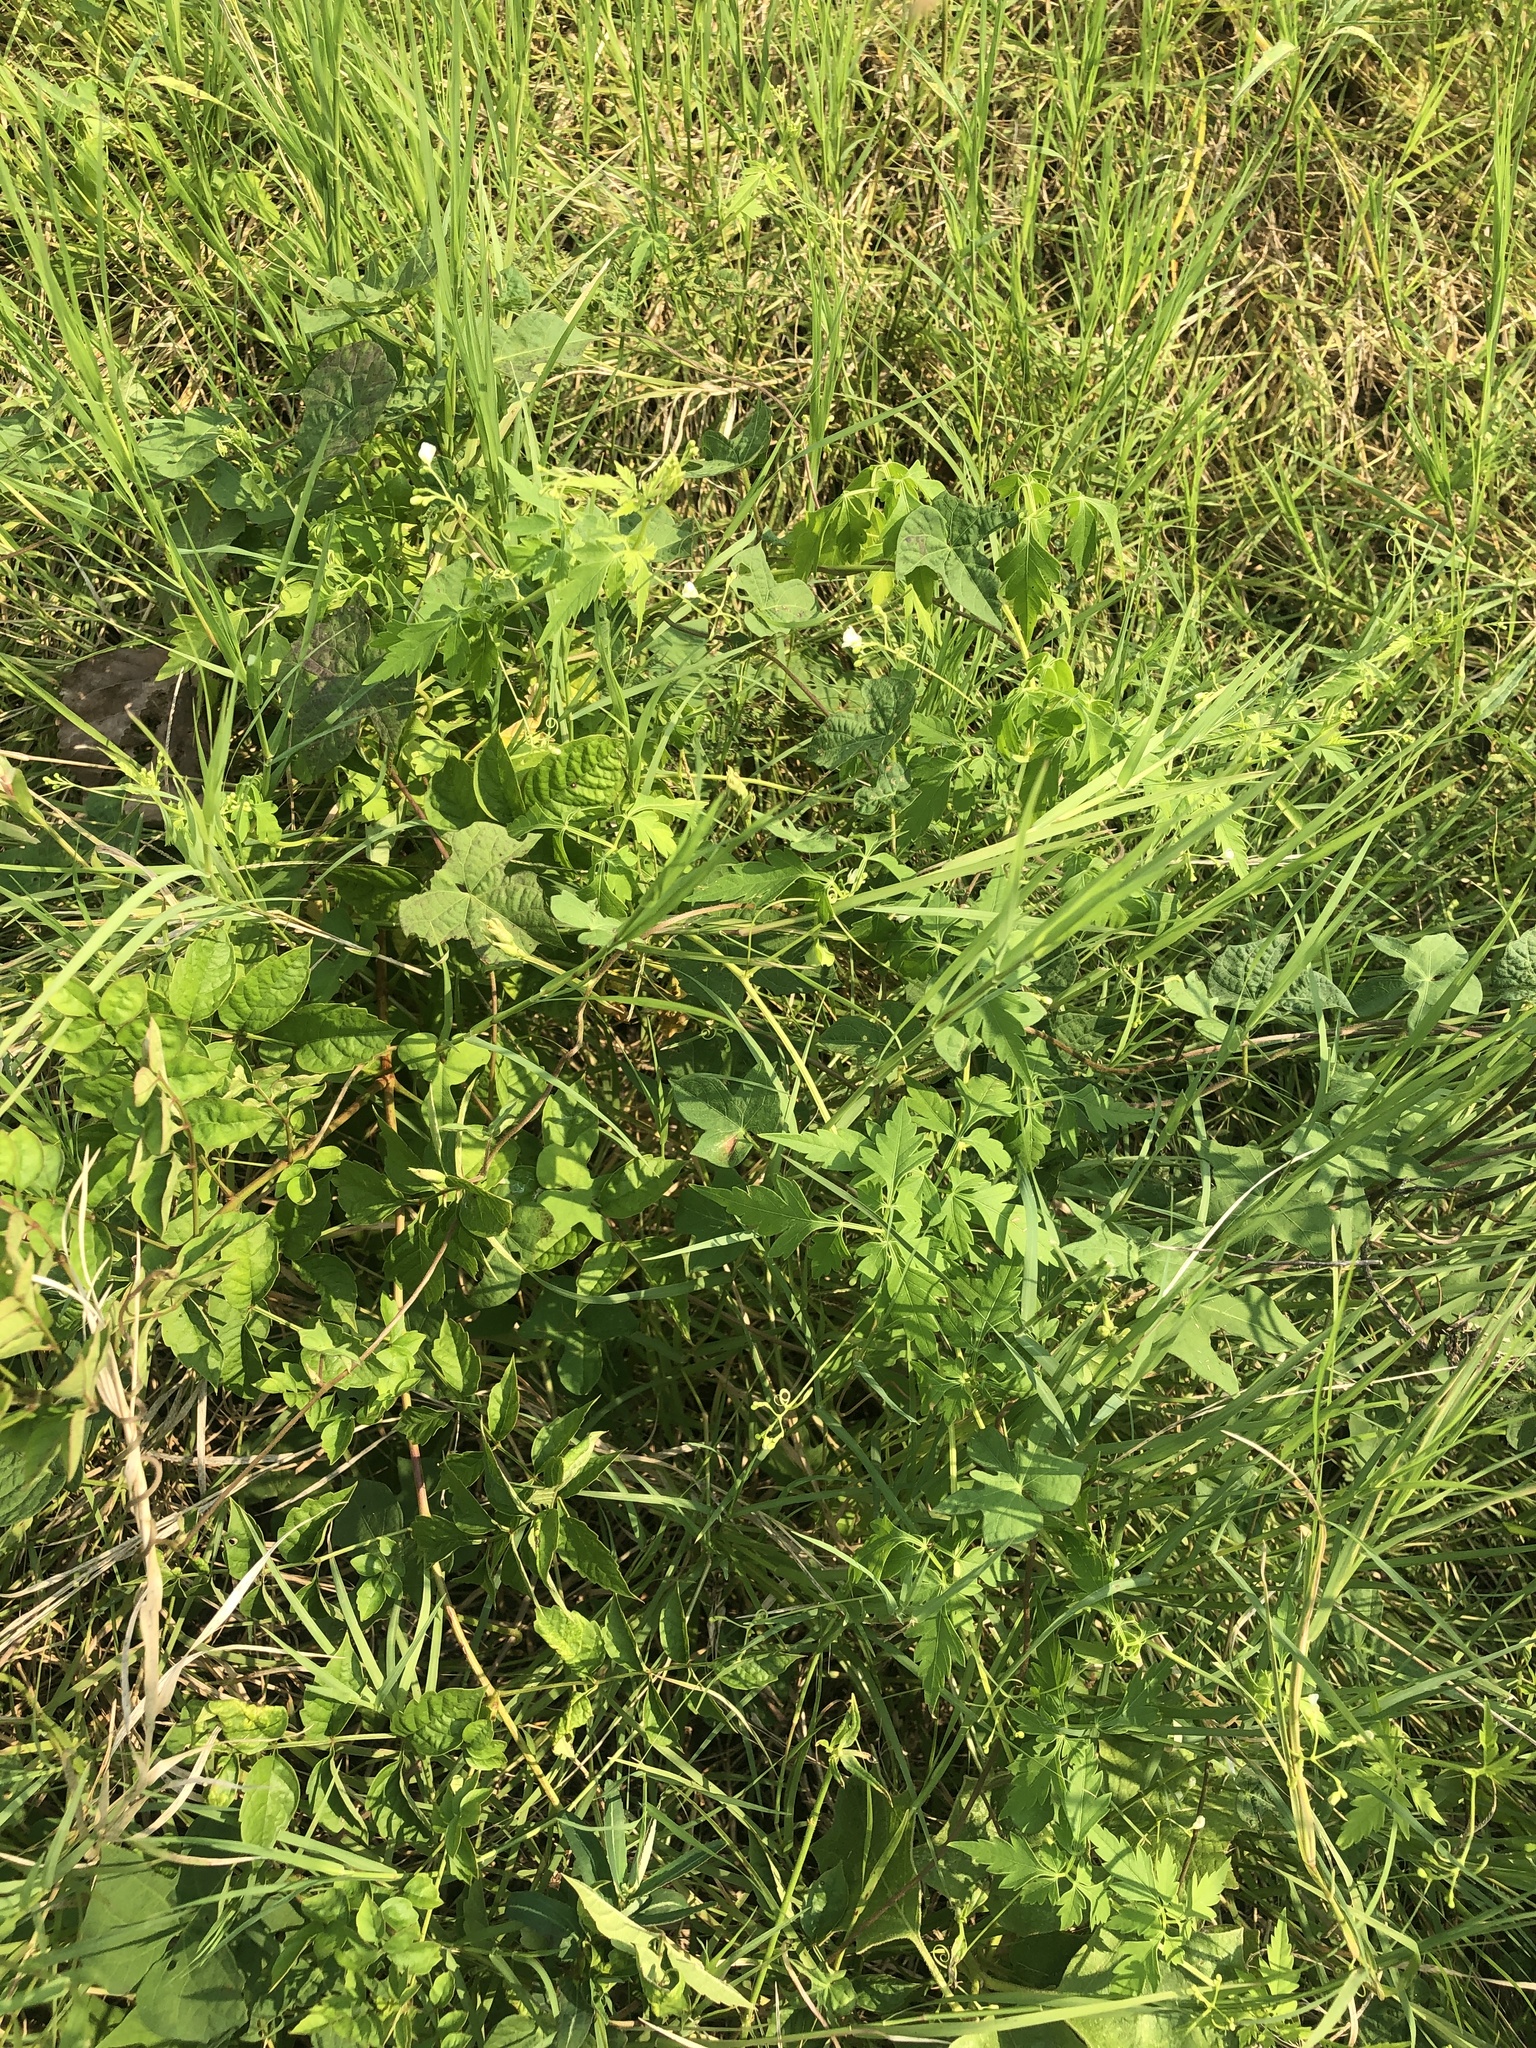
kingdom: Plantae
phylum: Tracheophyta
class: Magnoliopsida
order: Sapindales
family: Sapindaceae
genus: Cardiospermum
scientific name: Cardiospermum halicacabum
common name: Balloon vine
